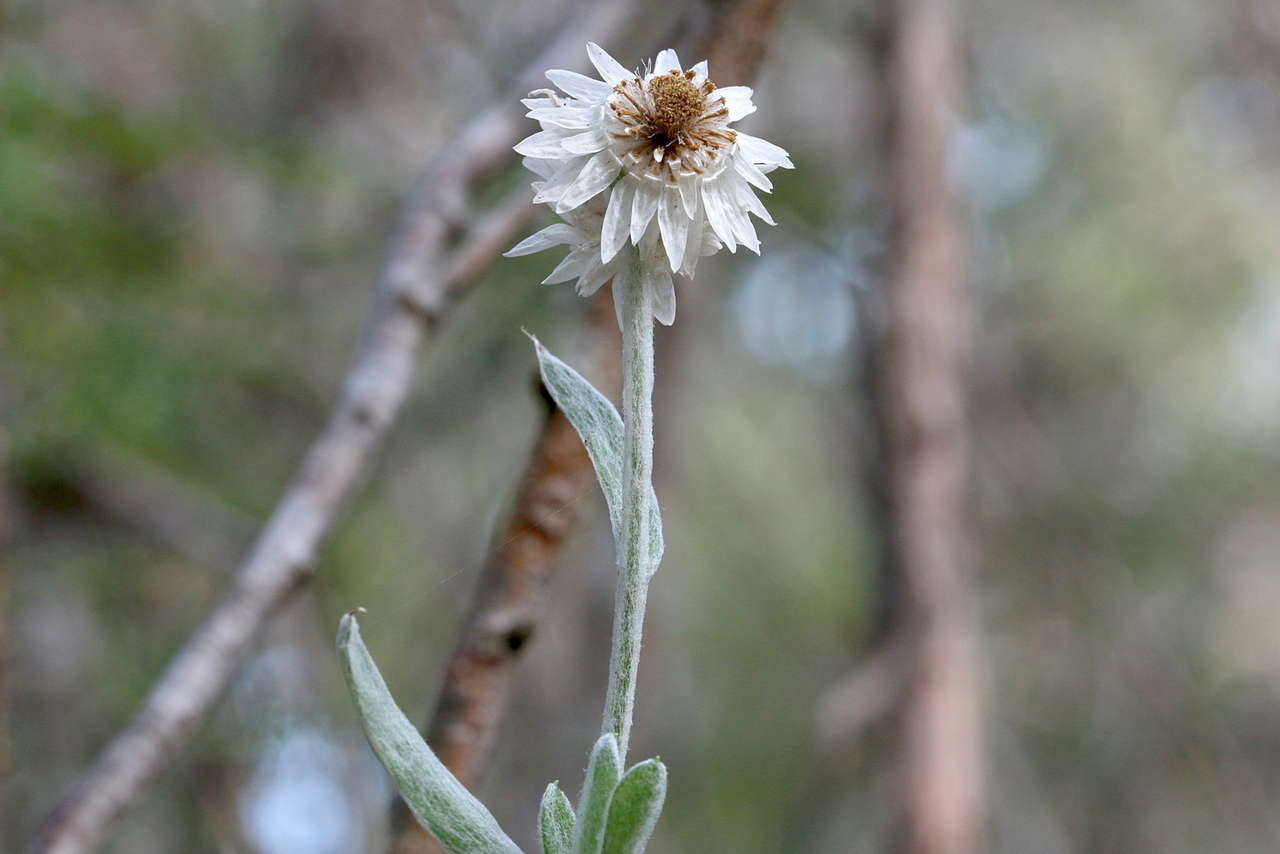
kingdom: Plantae
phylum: Tracheophyta
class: Magnoliopsida
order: Asterales
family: Asteraceae
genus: Argentipallium
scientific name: Argentipallium blandowskianum
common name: Woolly everlasting
